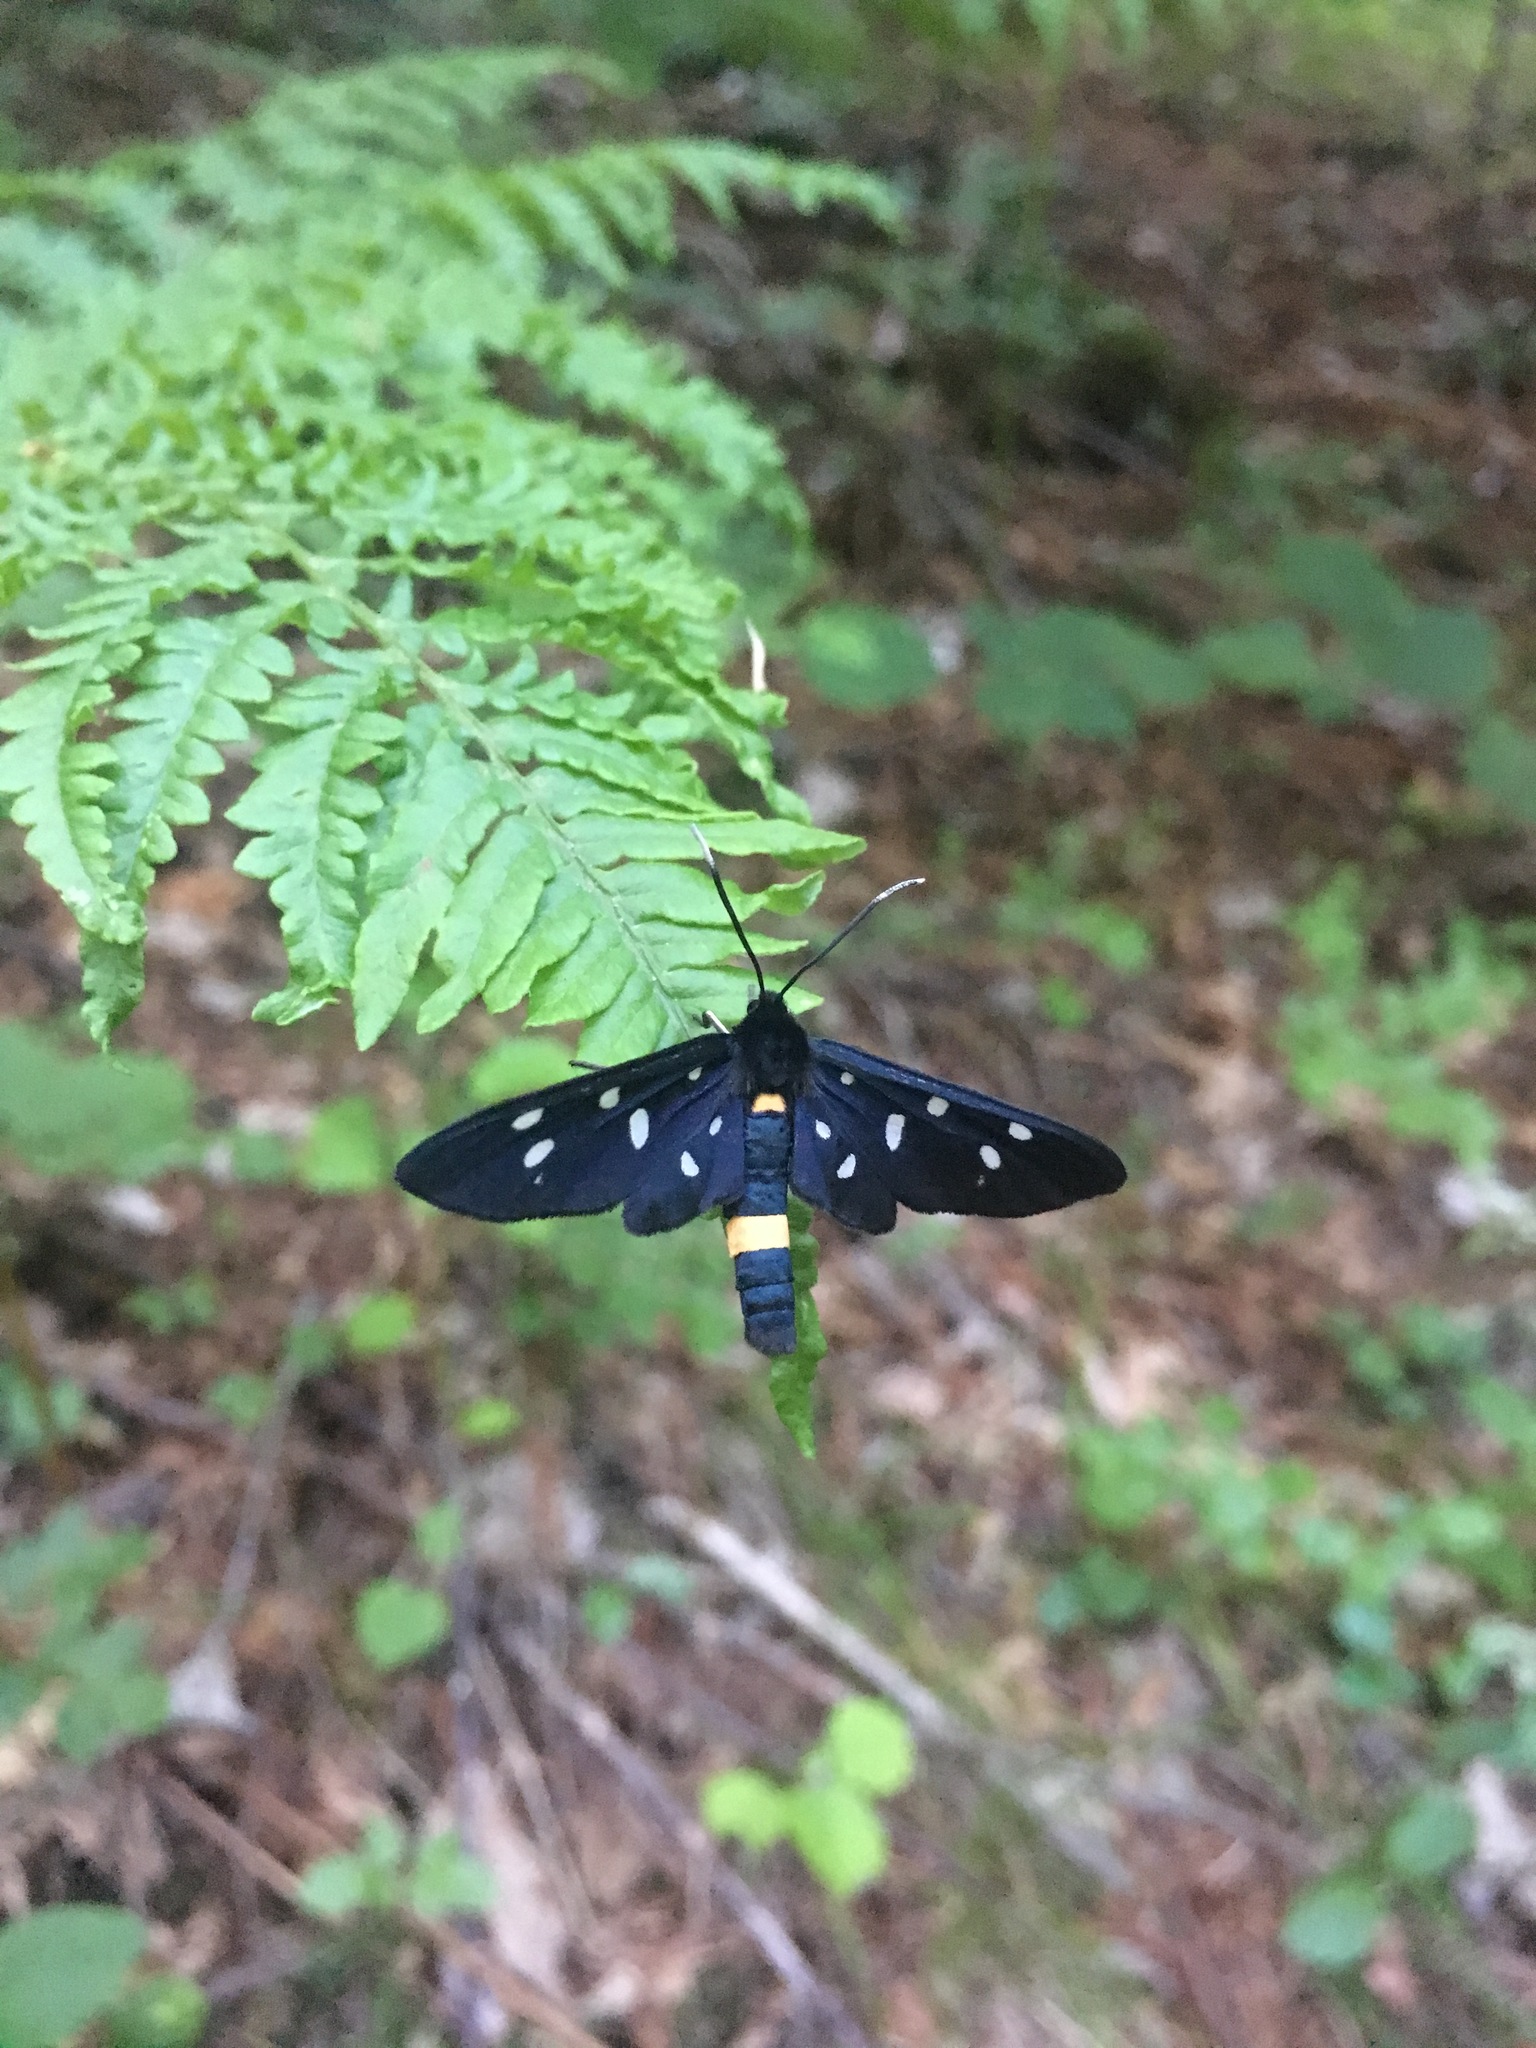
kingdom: Animalia
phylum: Arthropoda
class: Insecta
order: Lepidoptera
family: Erebidae
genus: Amata
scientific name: Amata phegea
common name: Nine-spotted
